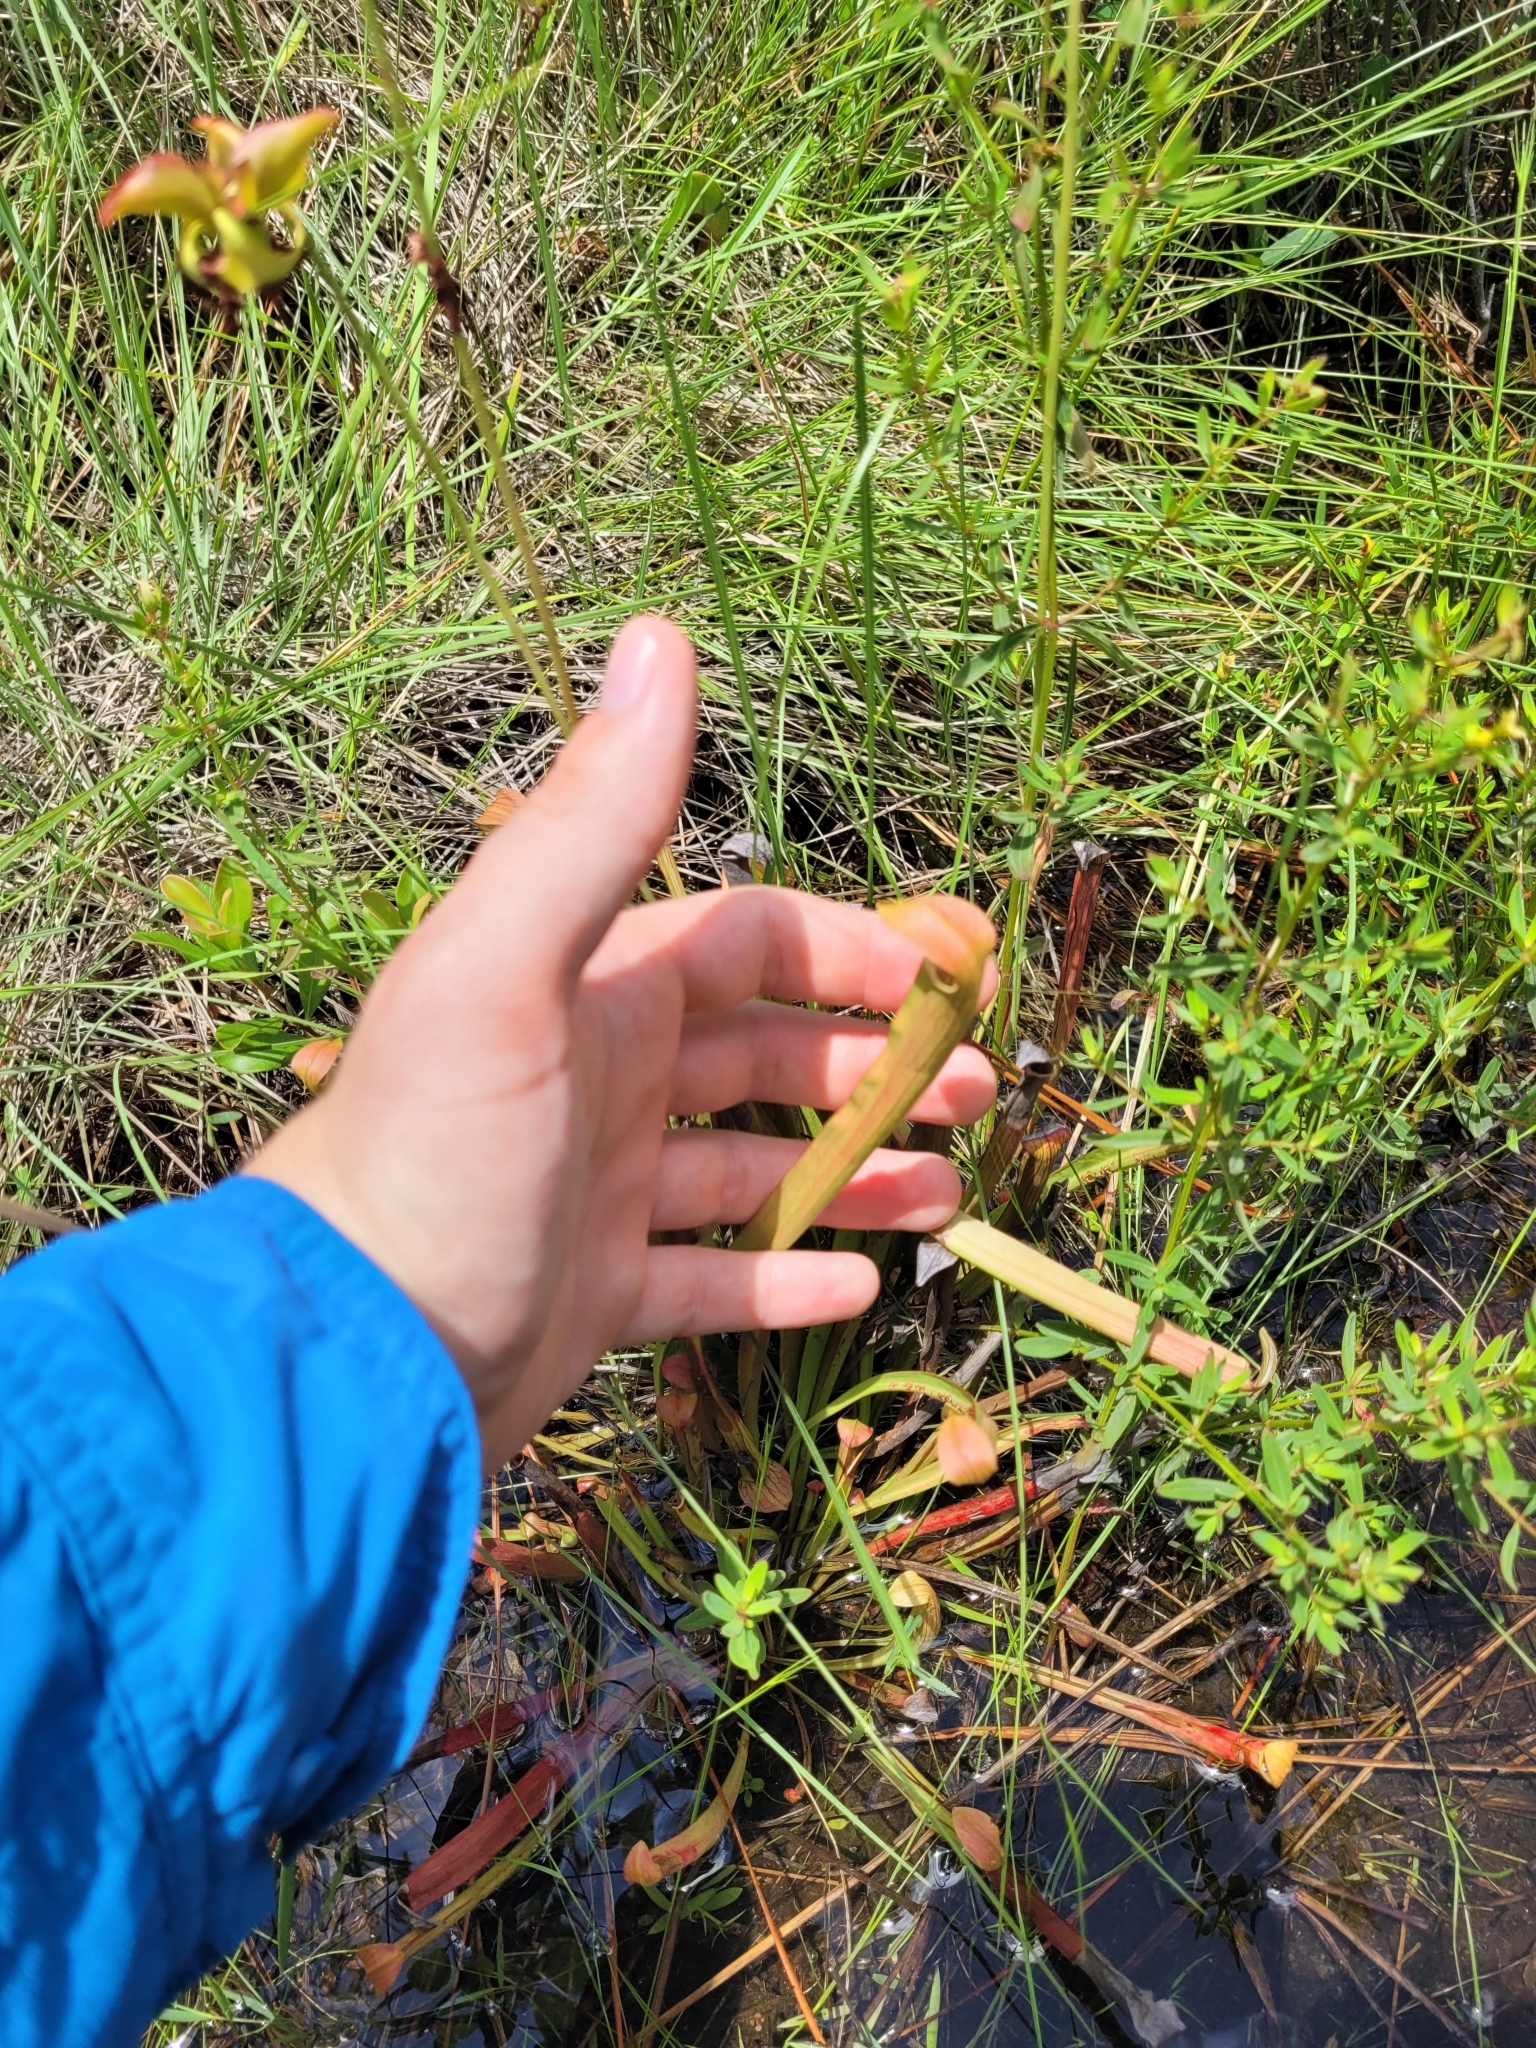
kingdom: Plantae
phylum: Tracheophyta
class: Magnoliopsida
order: Ericales
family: Sarraceniaceae
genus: Sarracenia
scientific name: Sarracenia rubra
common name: Sweet pitcherplant
